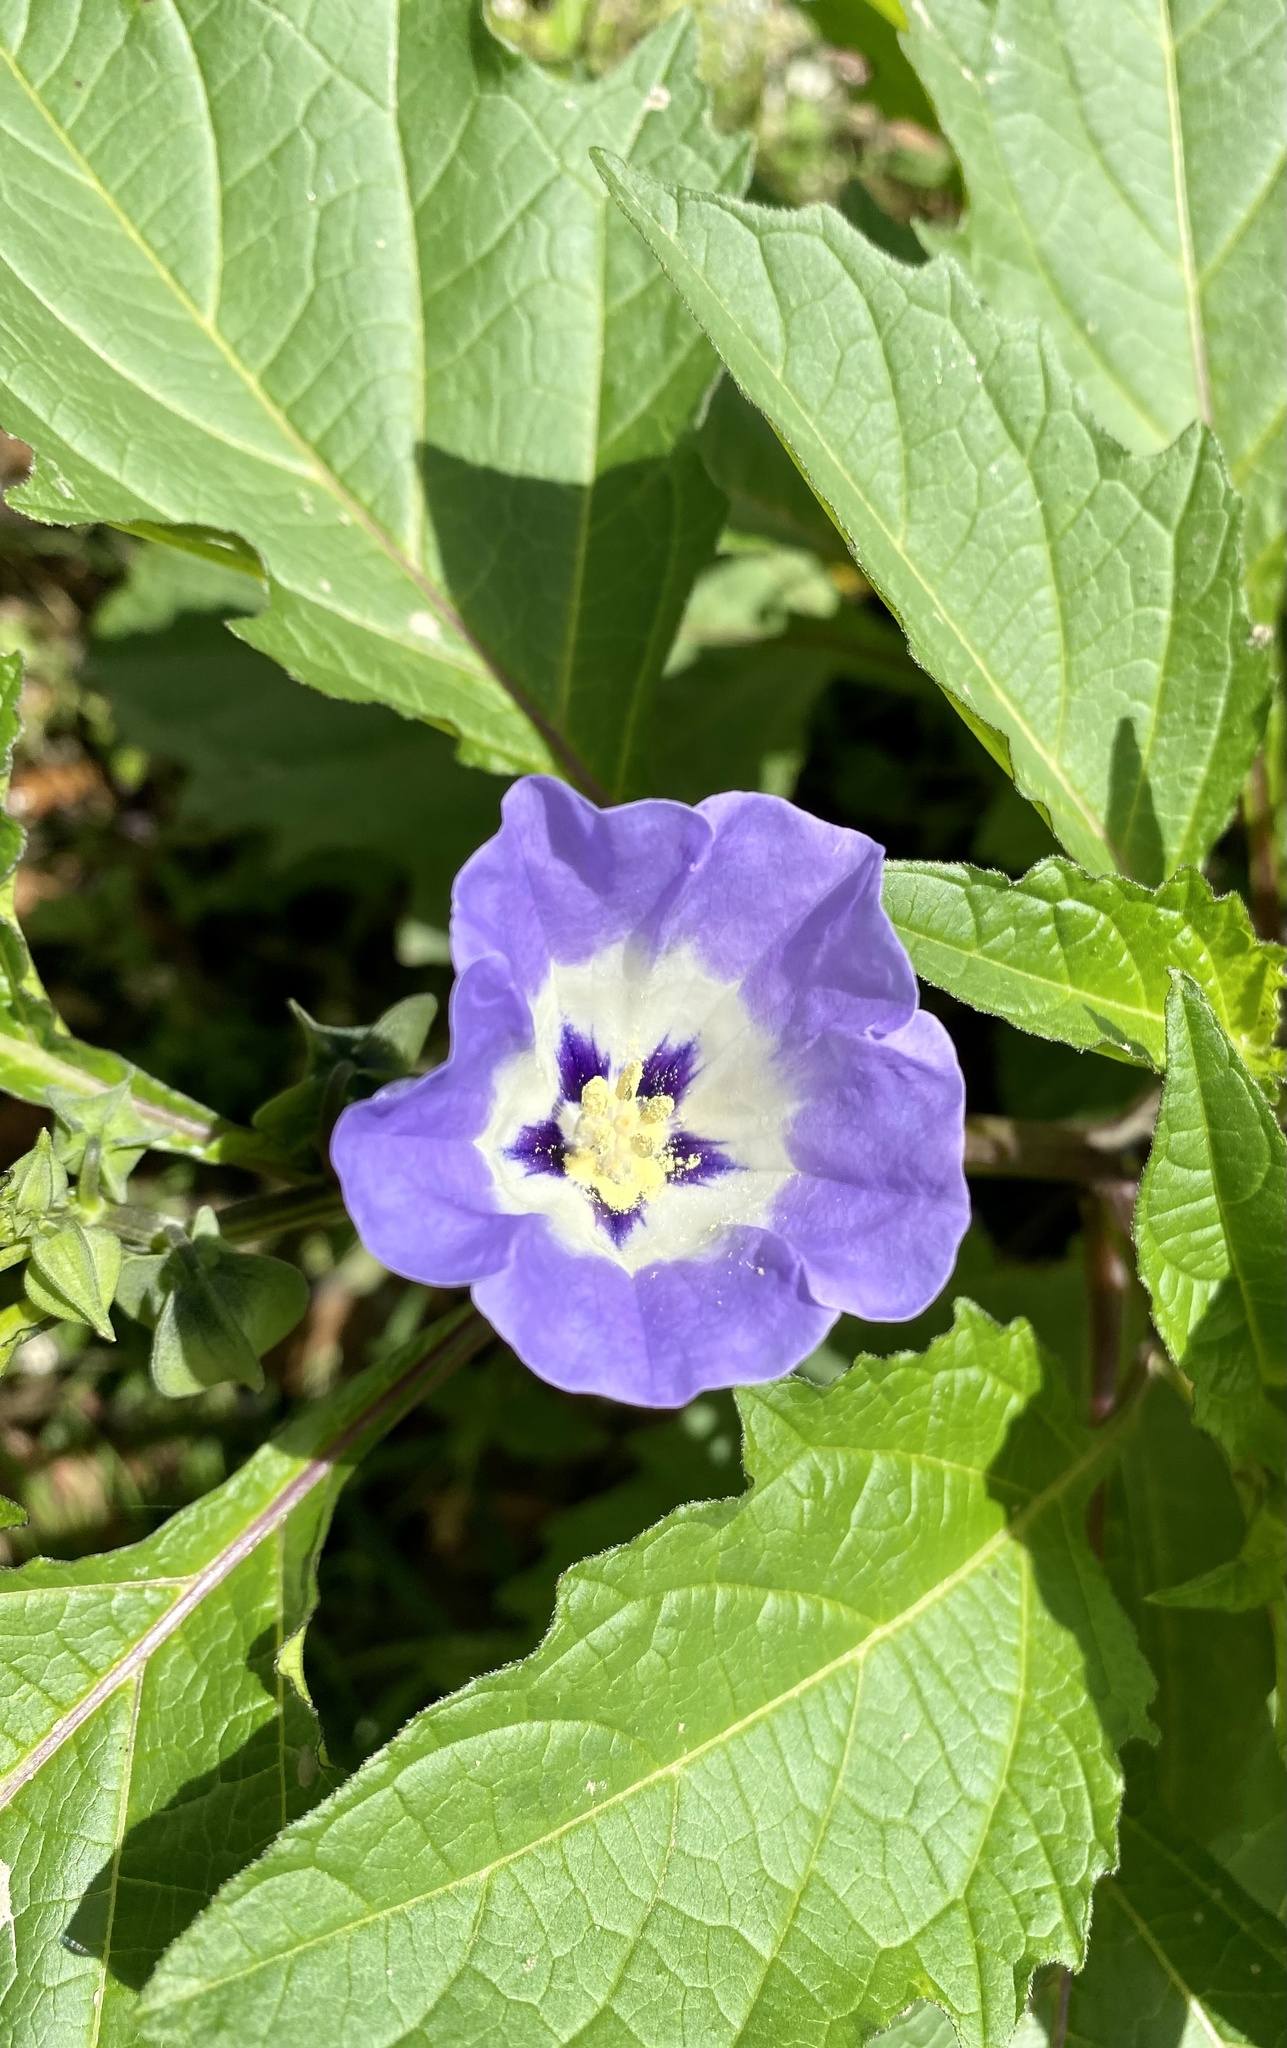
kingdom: Plantae
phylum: Tracheophyta
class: Magnoliopsida
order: Solanales
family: Solanaceae
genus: Nicandra
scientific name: Nicandra physalodes
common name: Apple-of-peru
